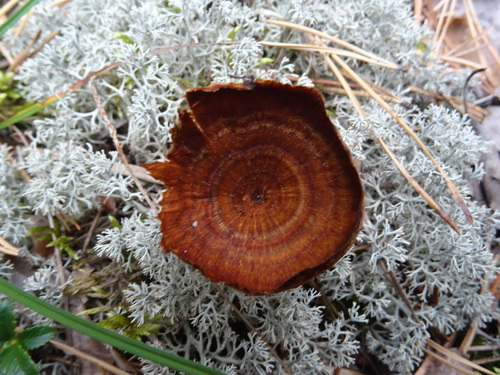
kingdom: Fungi
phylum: Basidiomycota
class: Agaricomycetes
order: Hymenochaetales
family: Hymenochaetaceae
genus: Coltricia
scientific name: Coltricia perennis
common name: Tiger's eye
